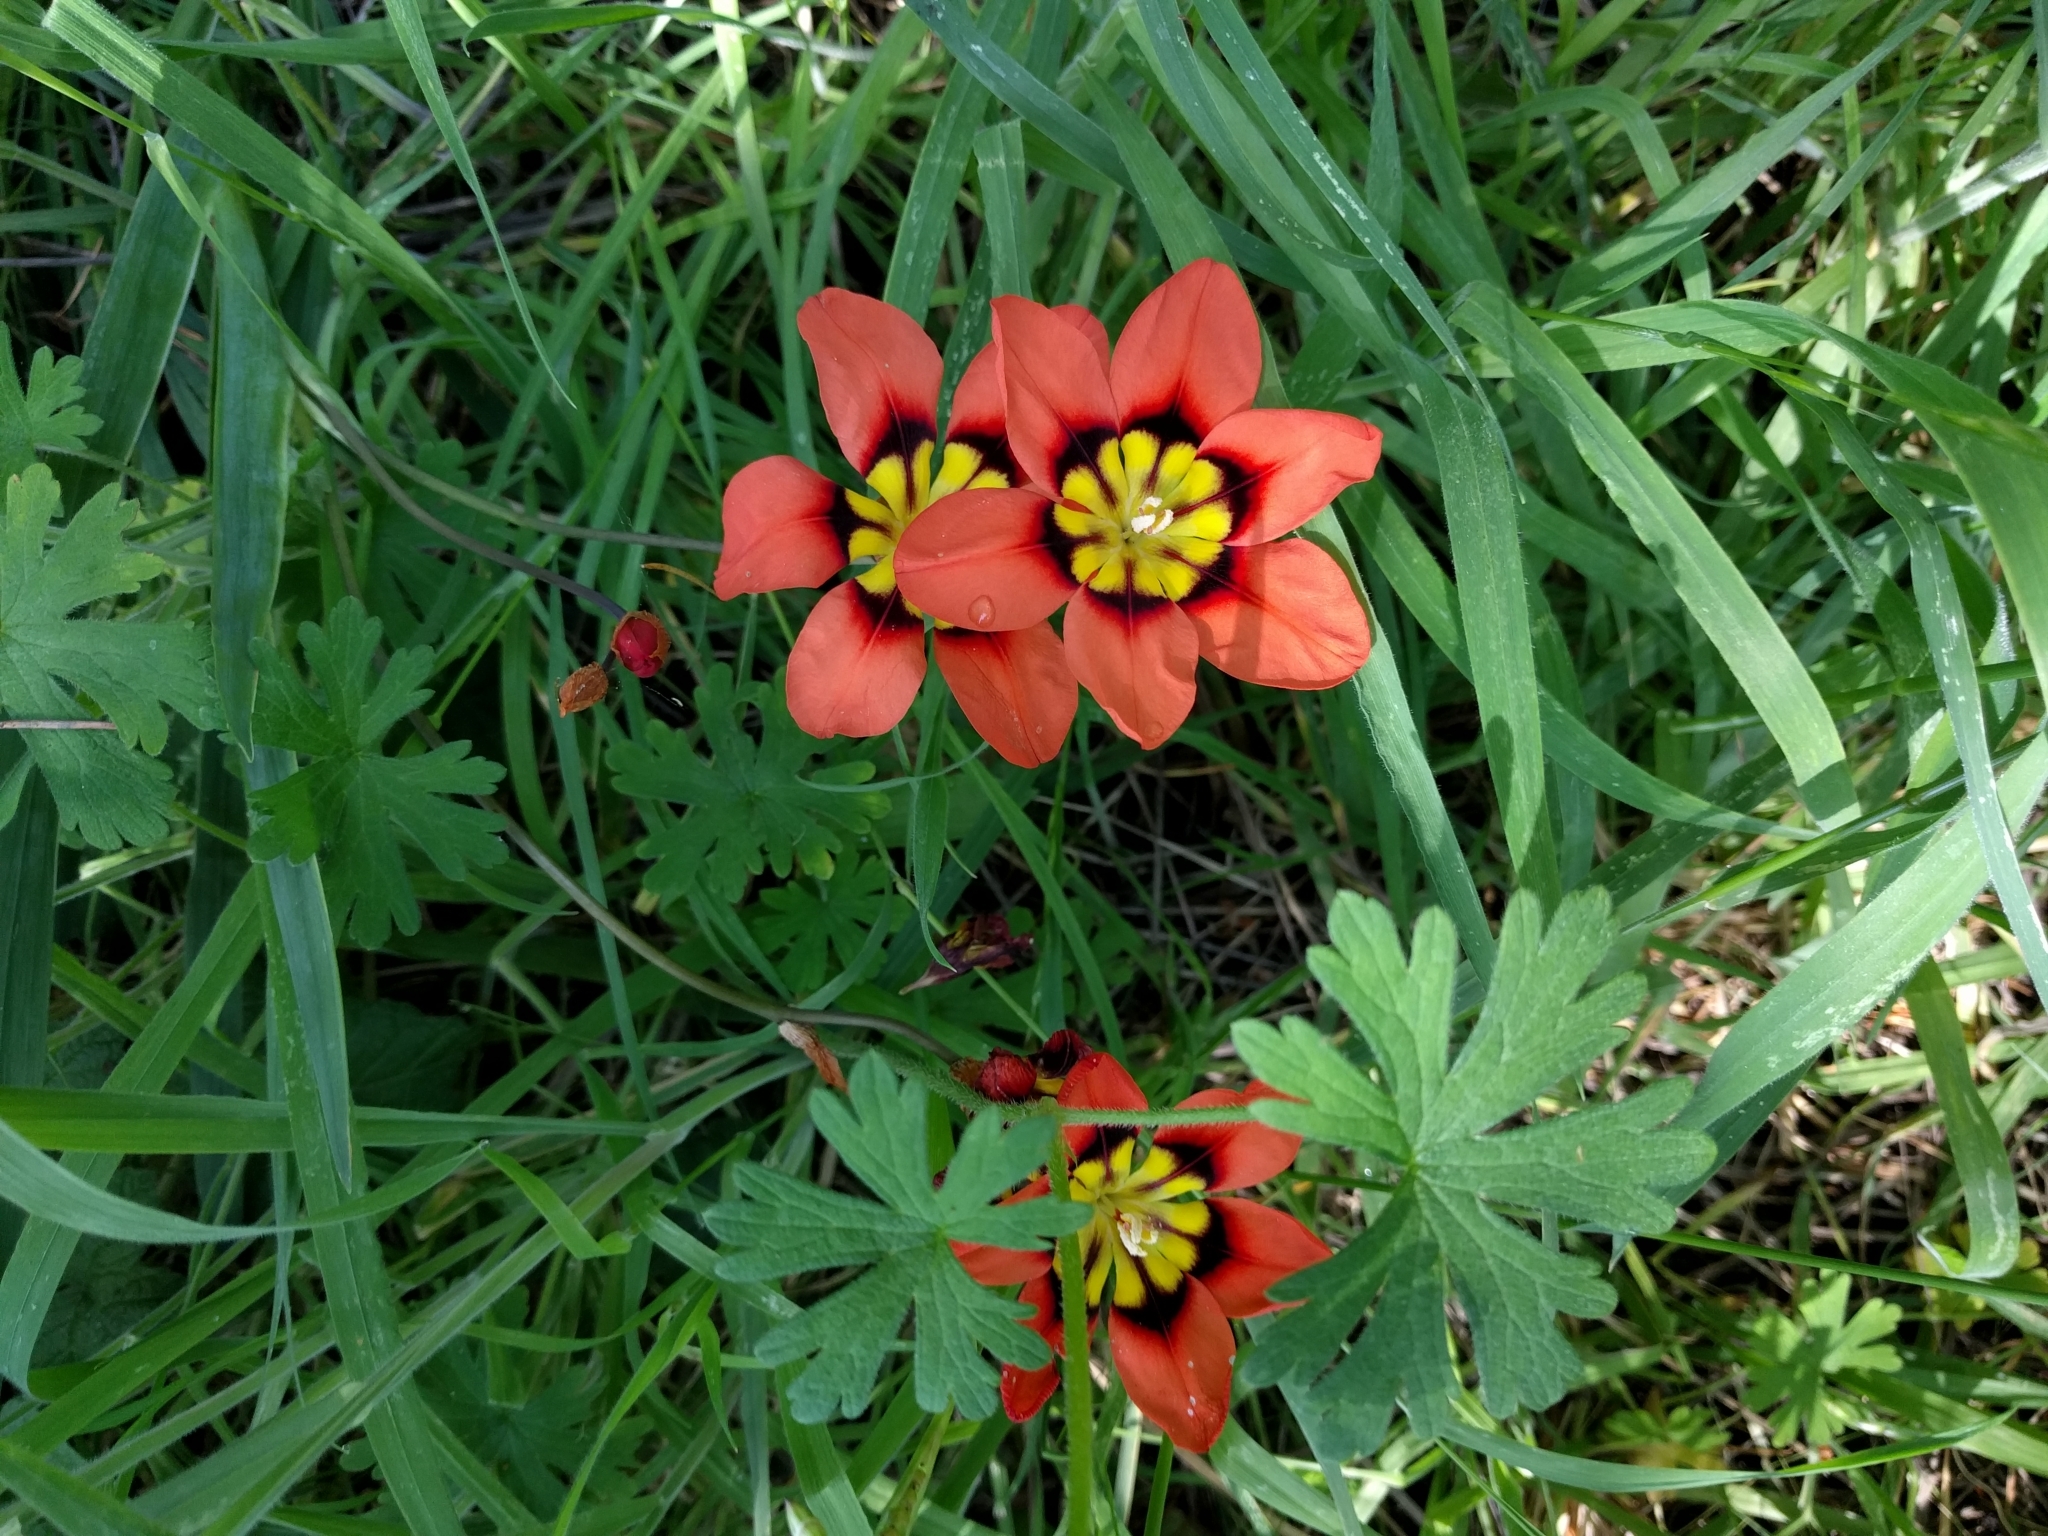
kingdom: Plantae
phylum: Tracheophyta
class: Liliopsida
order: Asparagales
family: Iridaceae
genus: Sparaxis
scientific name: Sparaxis tricolor
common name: Wandflower
